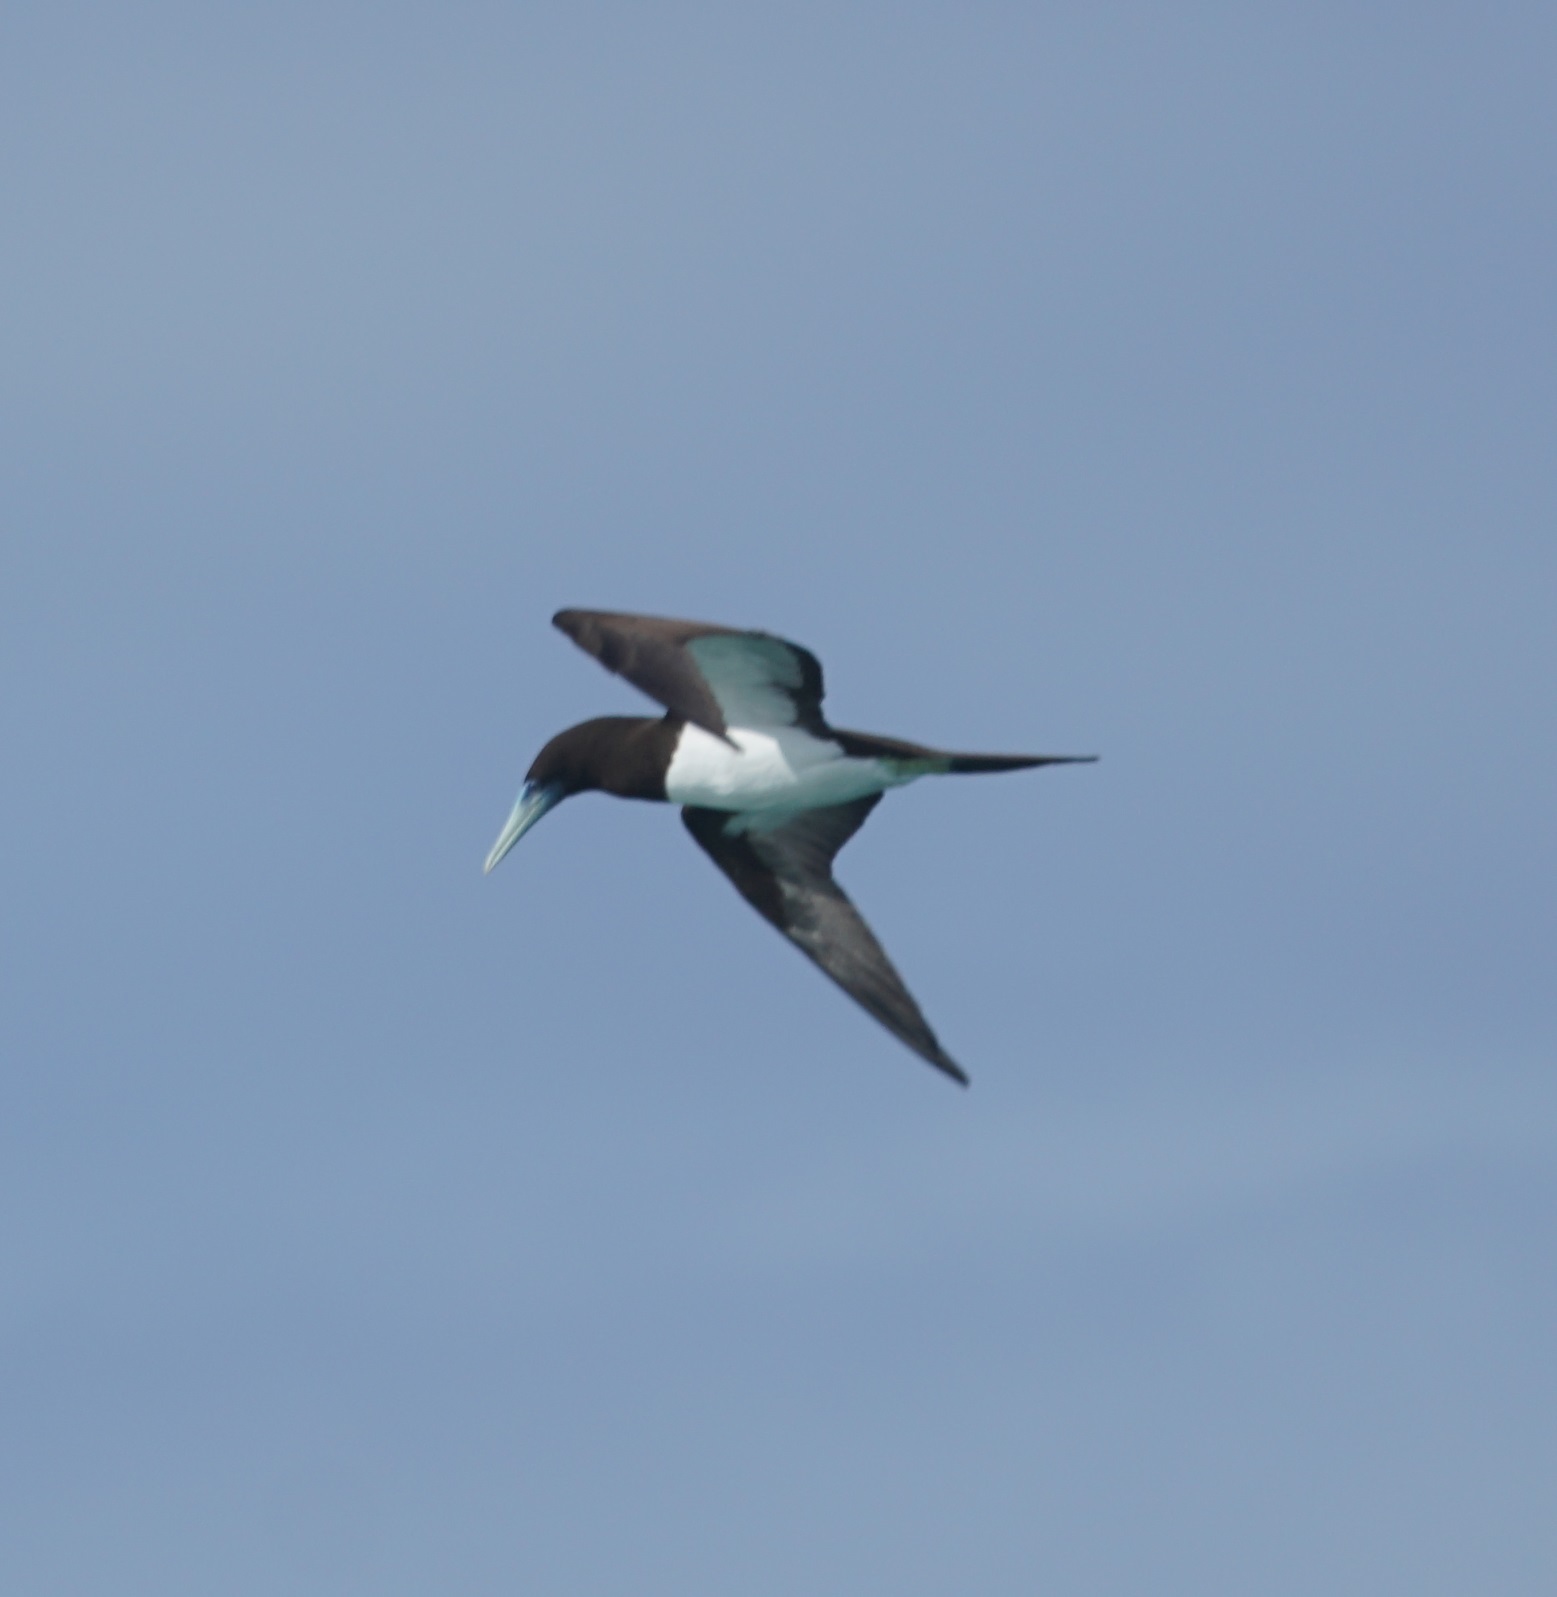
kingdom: Animalia
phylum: Chordata
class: Aves
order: Suliformes
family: Sulidae
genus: Sula
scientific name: Sula leucogaster
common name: Brown booby
